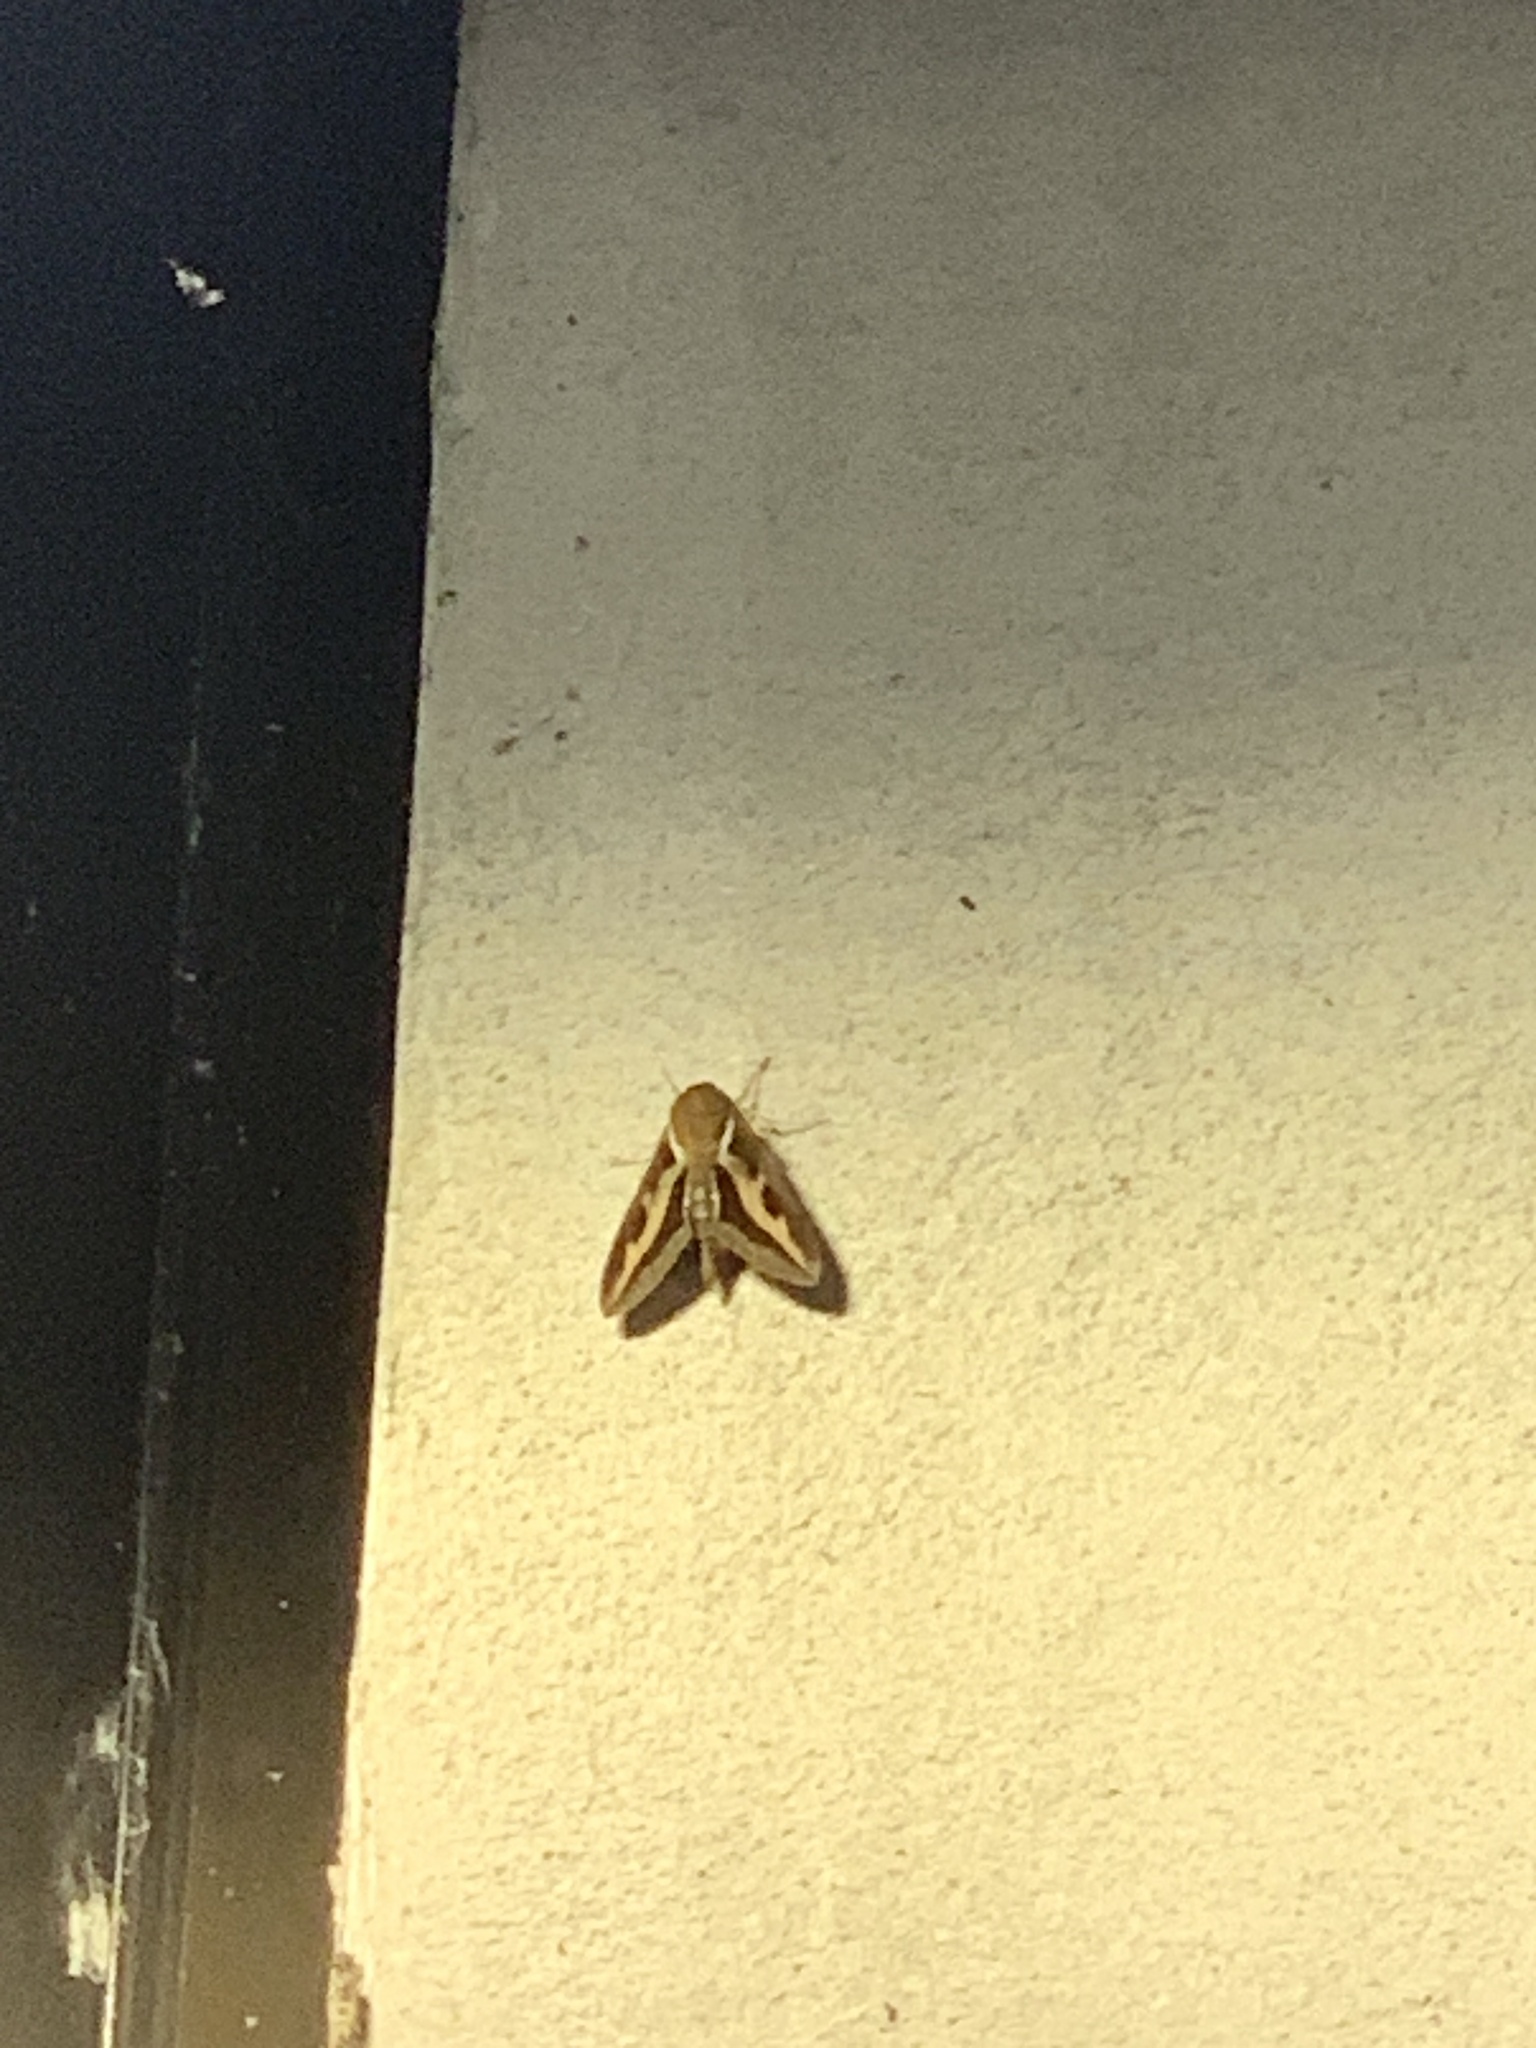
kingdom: Animalia
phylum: Arthropoda
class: Insecta
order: Lepidoptera
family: Sphingidae
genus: Hyles
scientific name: Hyles gallii
